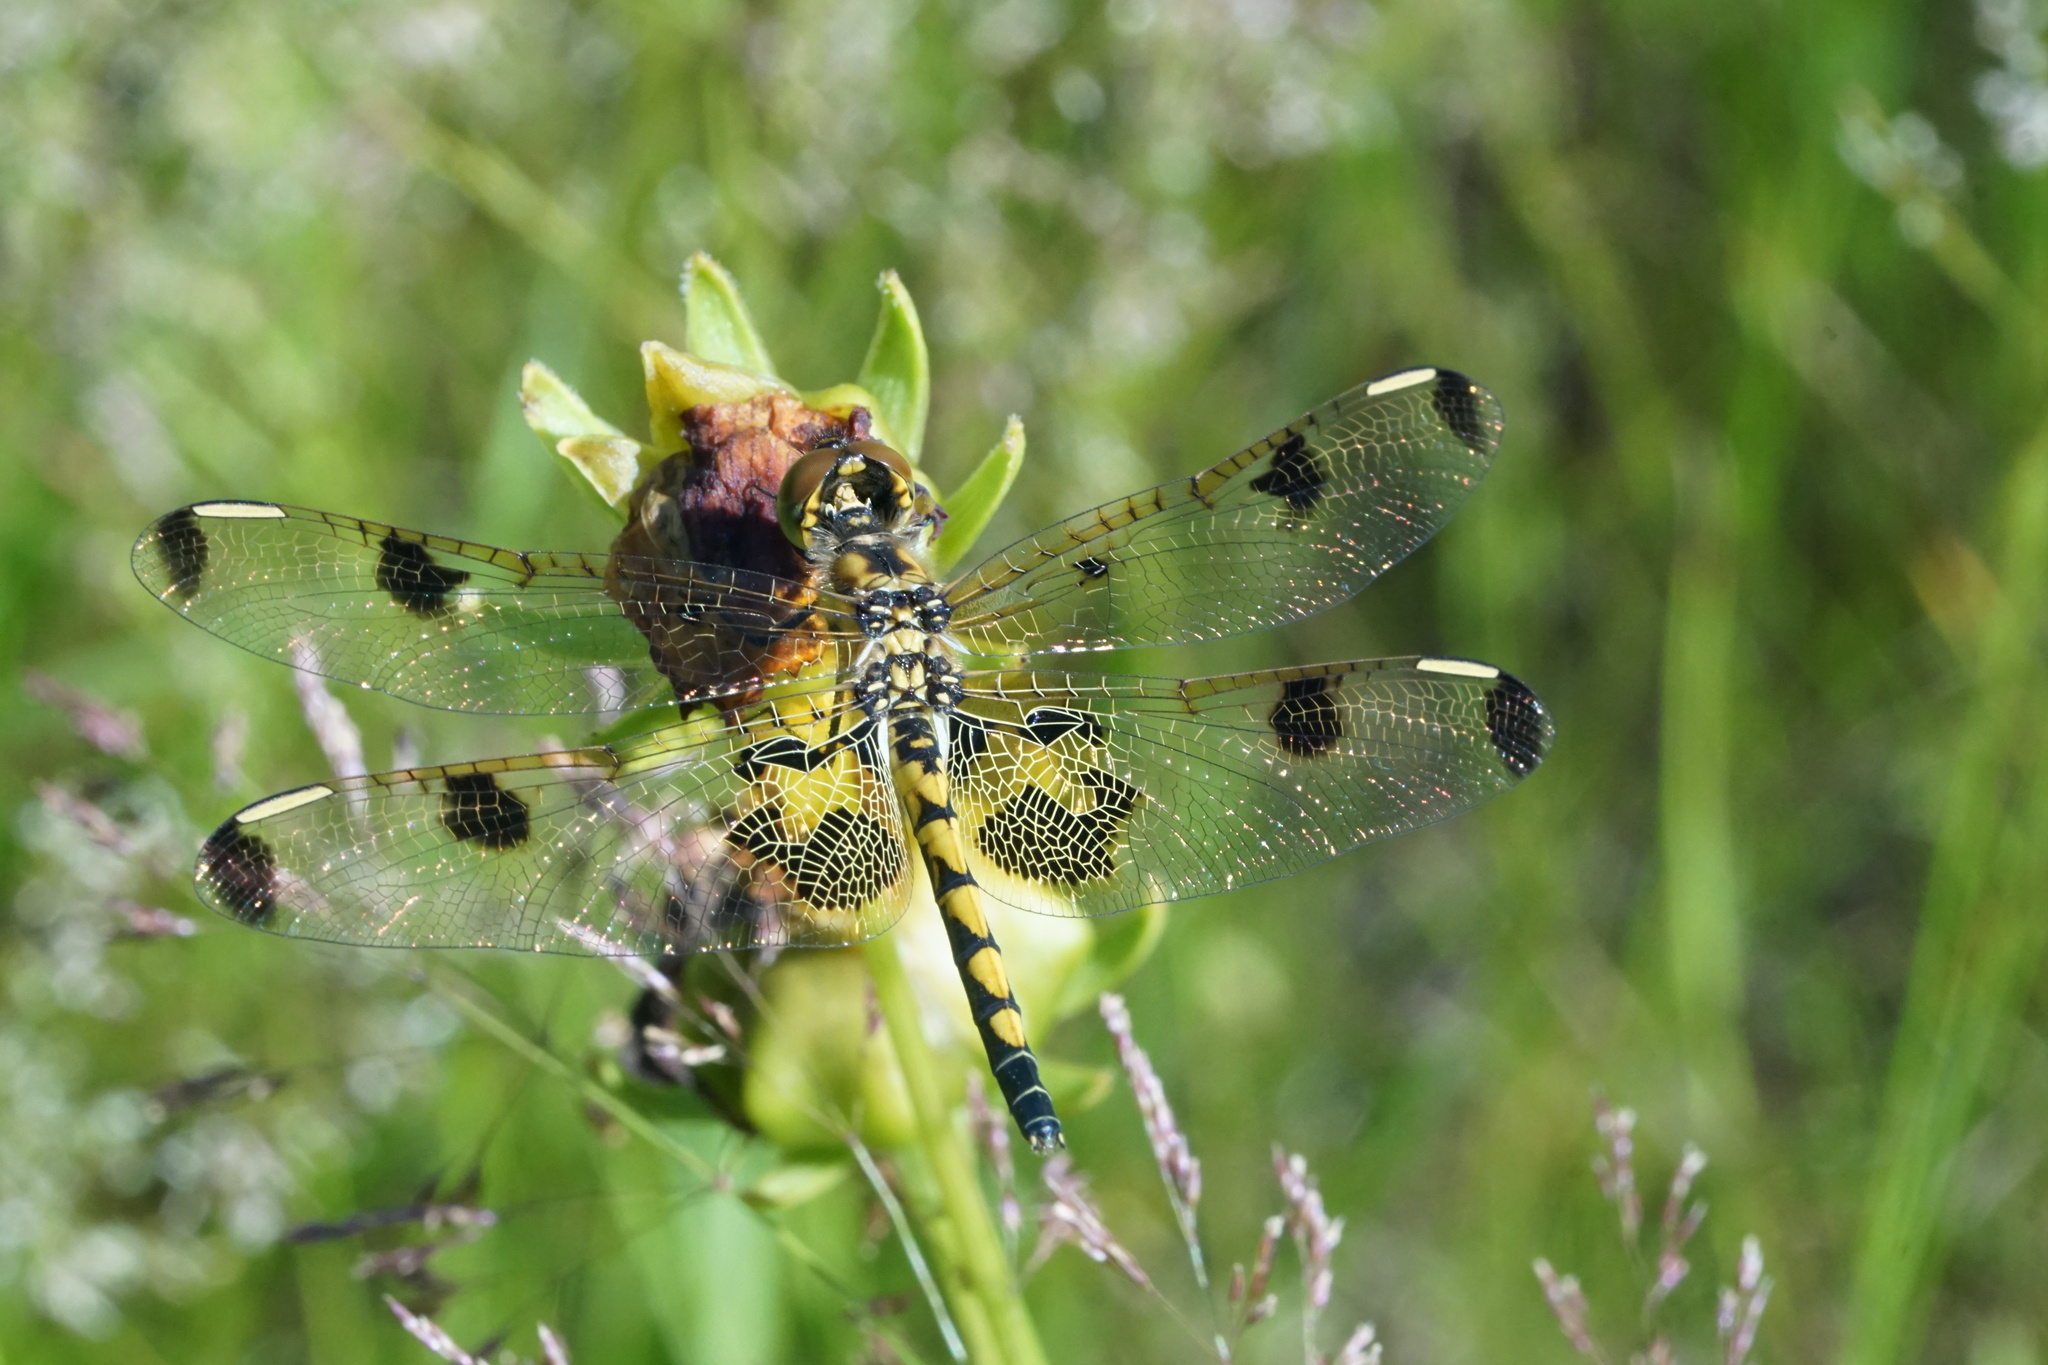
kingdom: Animalia
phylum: Arthropoda
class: Insecta
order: Odonata
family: Libellulidae
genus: Celithemis
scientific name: Celithemis elisa
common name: Calico pennant
